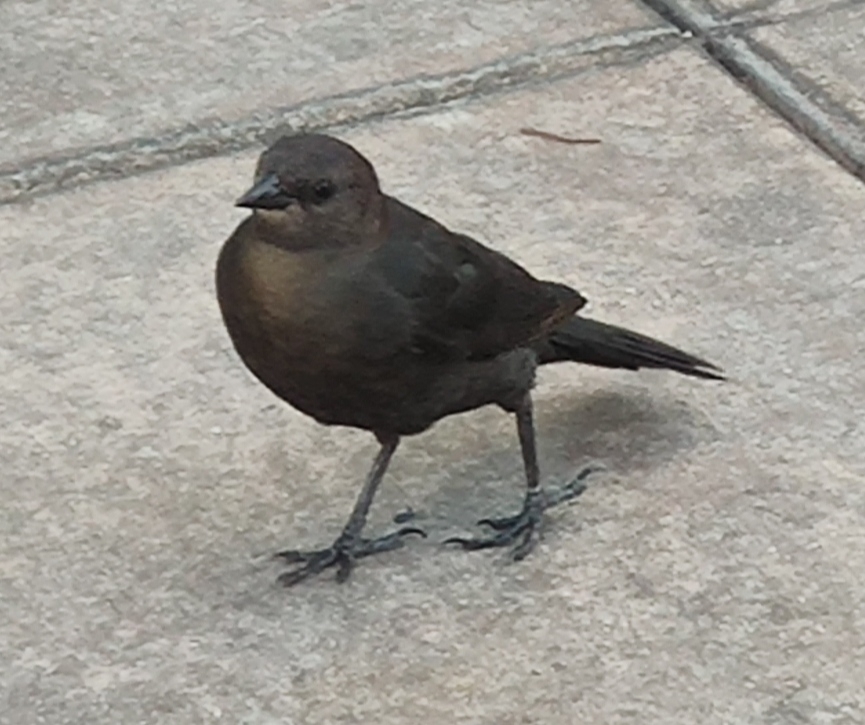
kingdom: Animalia
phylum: Chordata
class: Aves
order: Passeriformes
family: Icteridae
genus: Euphagus
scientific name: Euphagus cyanocephalus
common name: Brewer's blackbird
